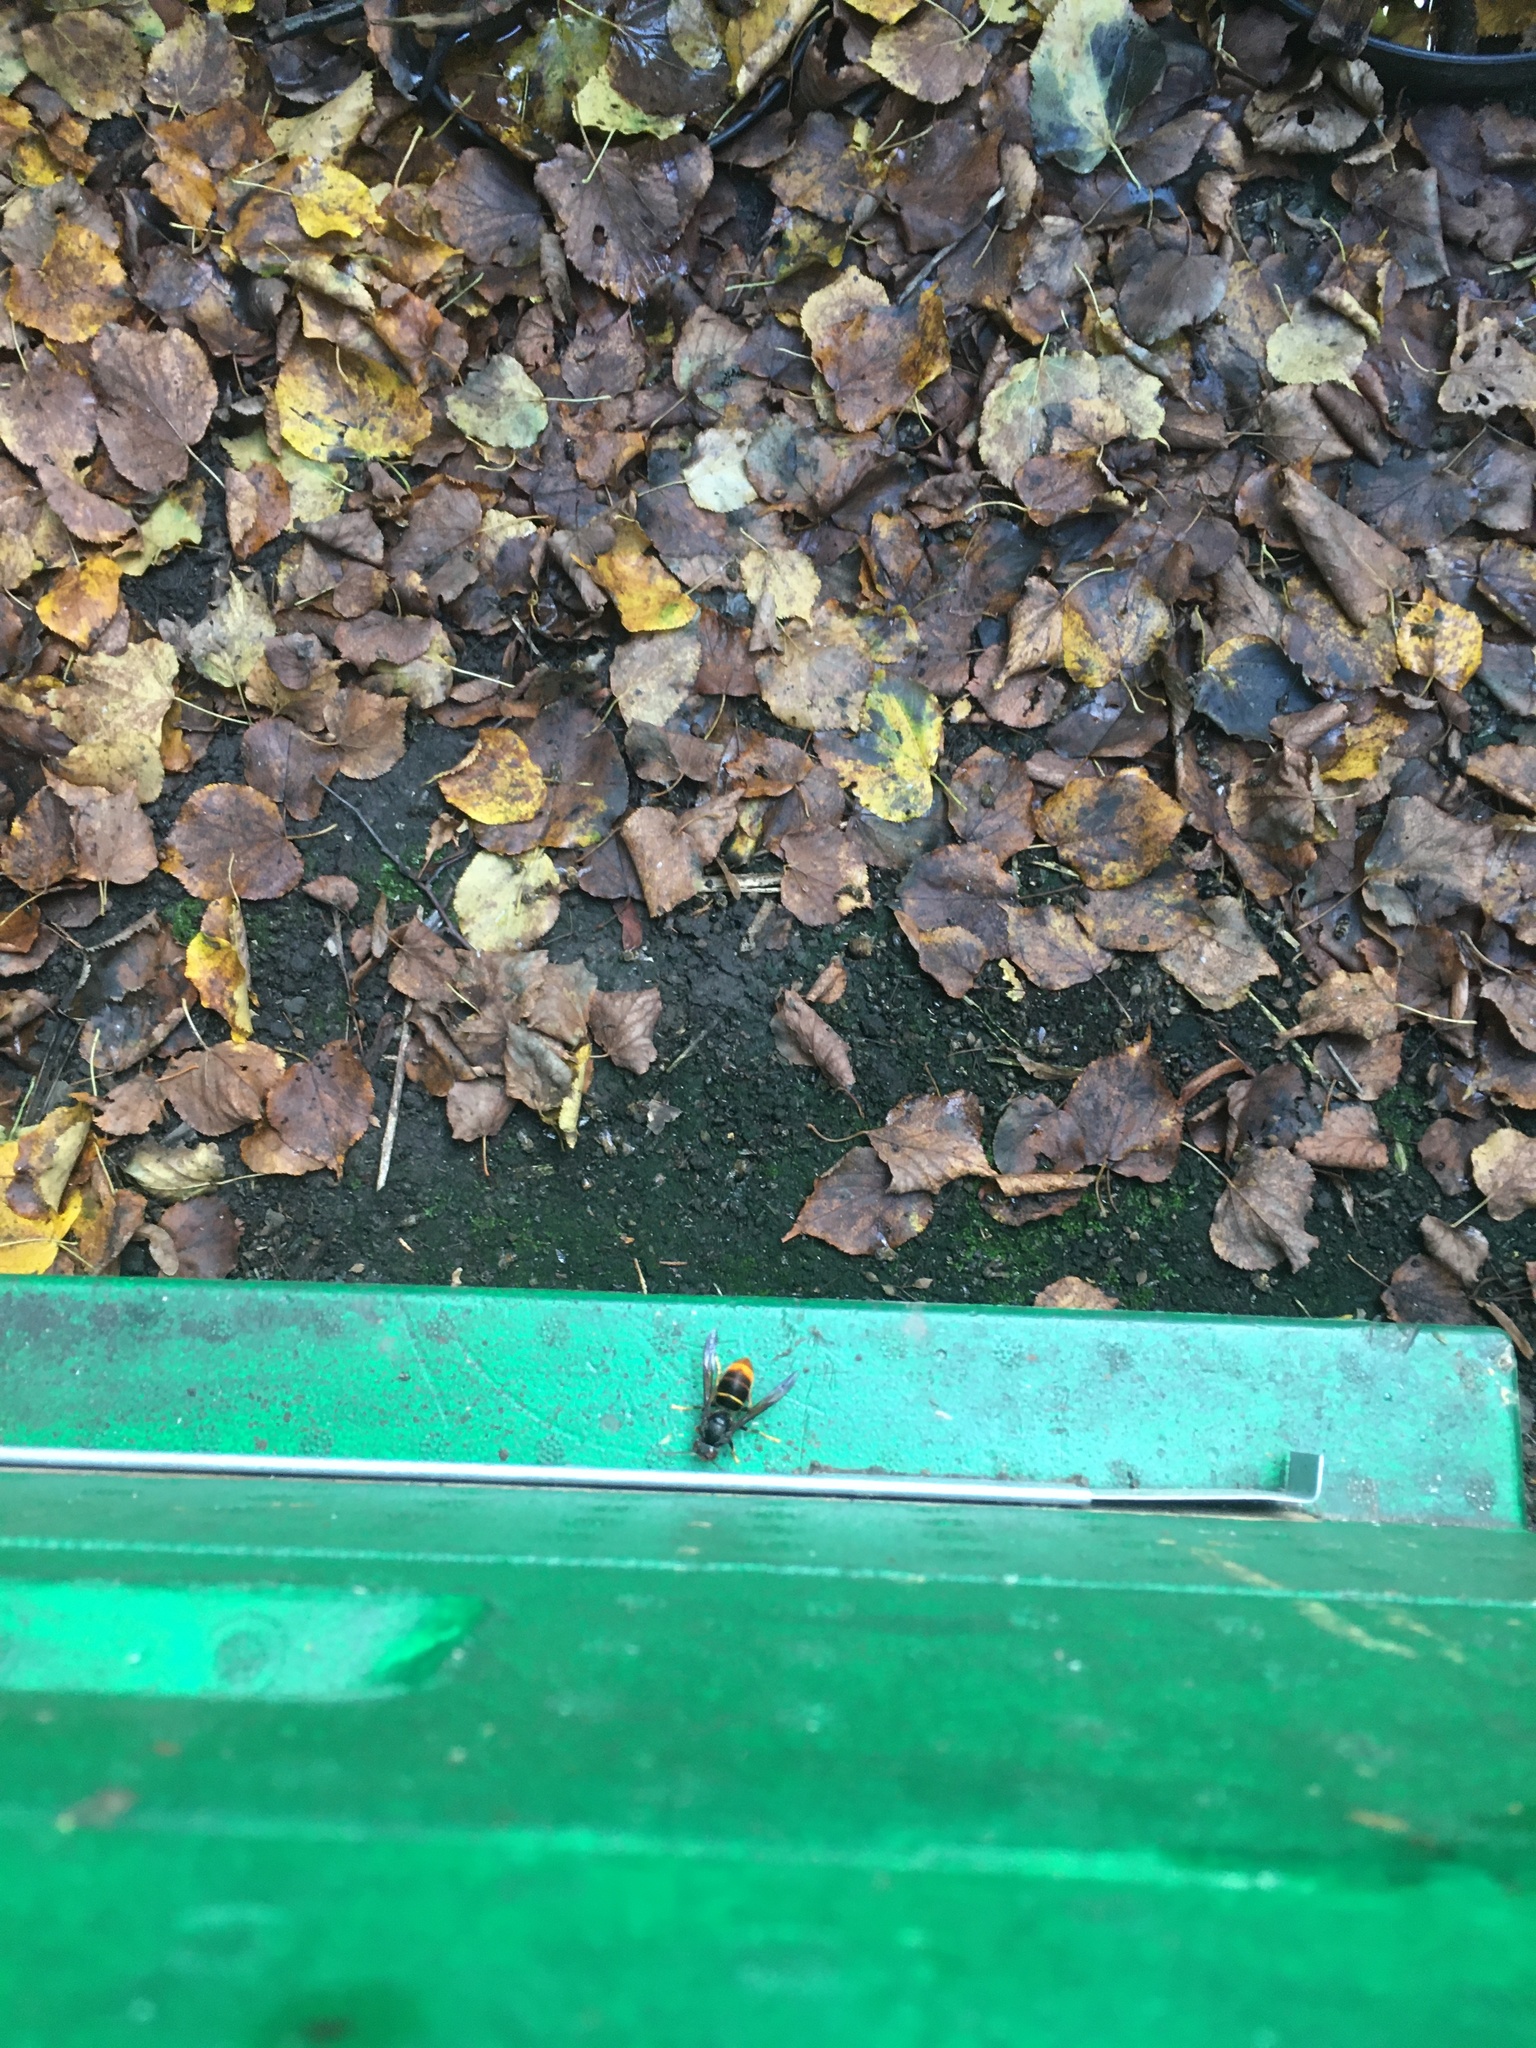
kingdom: Animalia
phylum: Arthropoda
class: Insecta
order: Hymenoptera
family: Vespidae
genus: Vespa
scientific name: Vespa velutina
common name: Asian hornet
